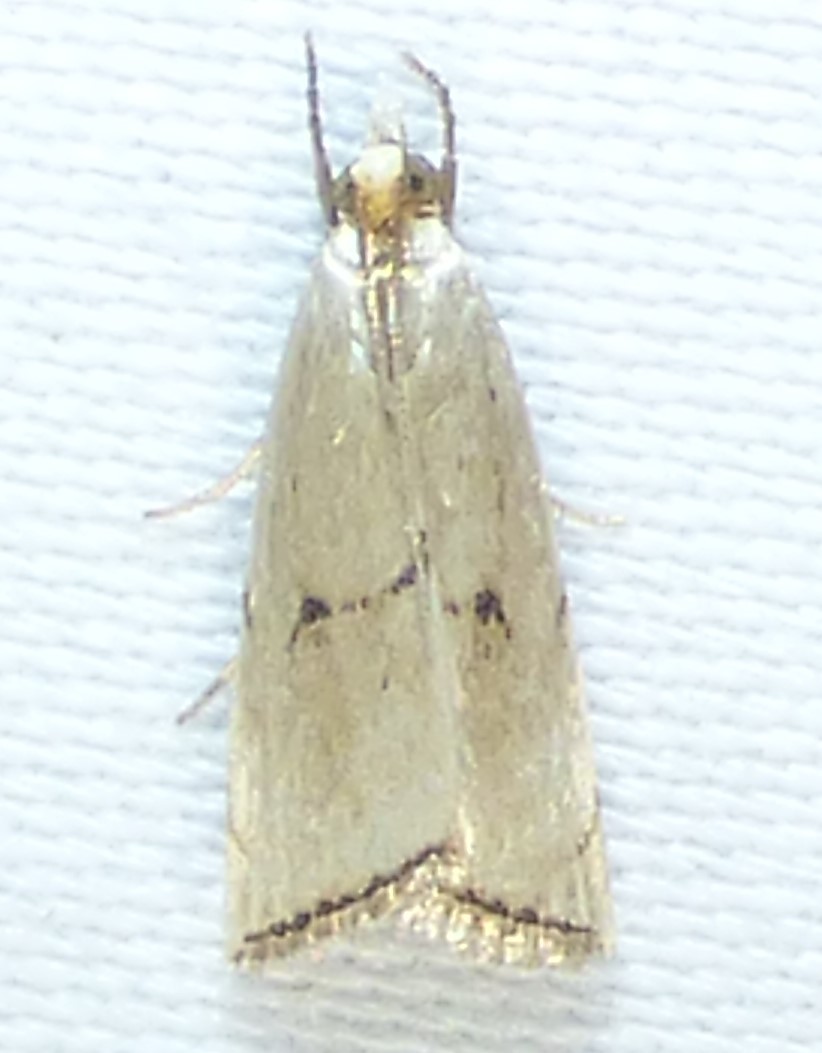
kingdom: Animalia
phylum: Arthropoda
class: Insecta
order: Lepidoptera
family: Crambidae
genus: Argyria
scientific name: Argyria pusillalis
